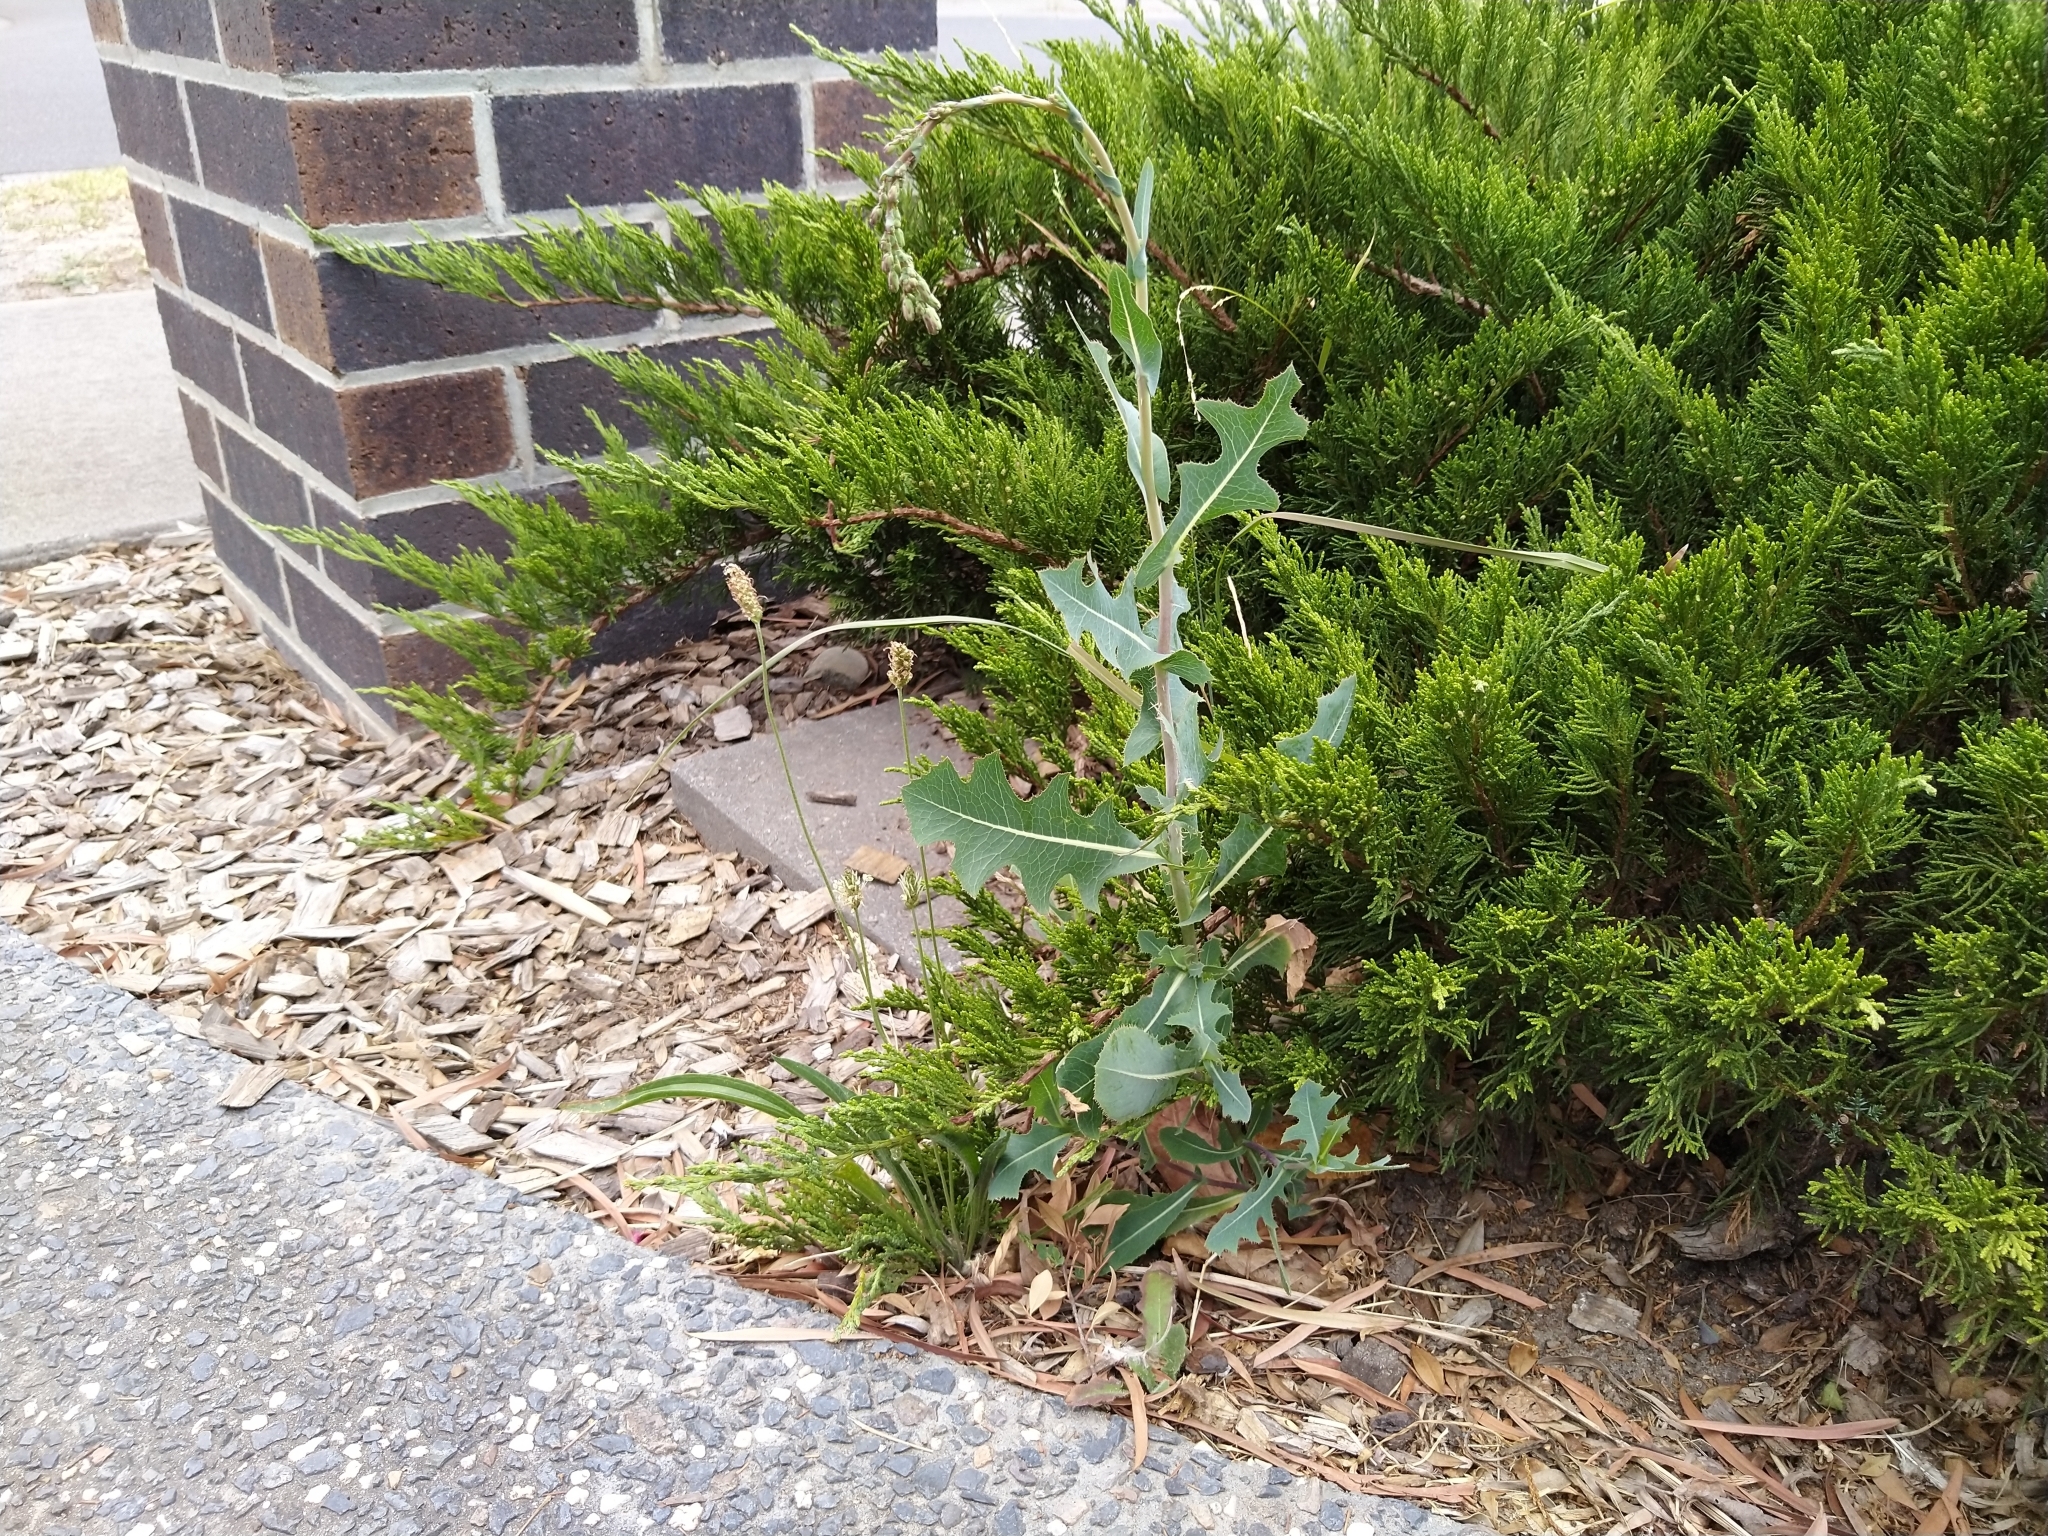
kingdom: Plantae
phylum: Tracheophyta
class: Magnoliopsida
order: Asterales
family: Asteraceae
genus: Lactuca
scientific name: Lactuca serriola
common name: Prickly lettuce
